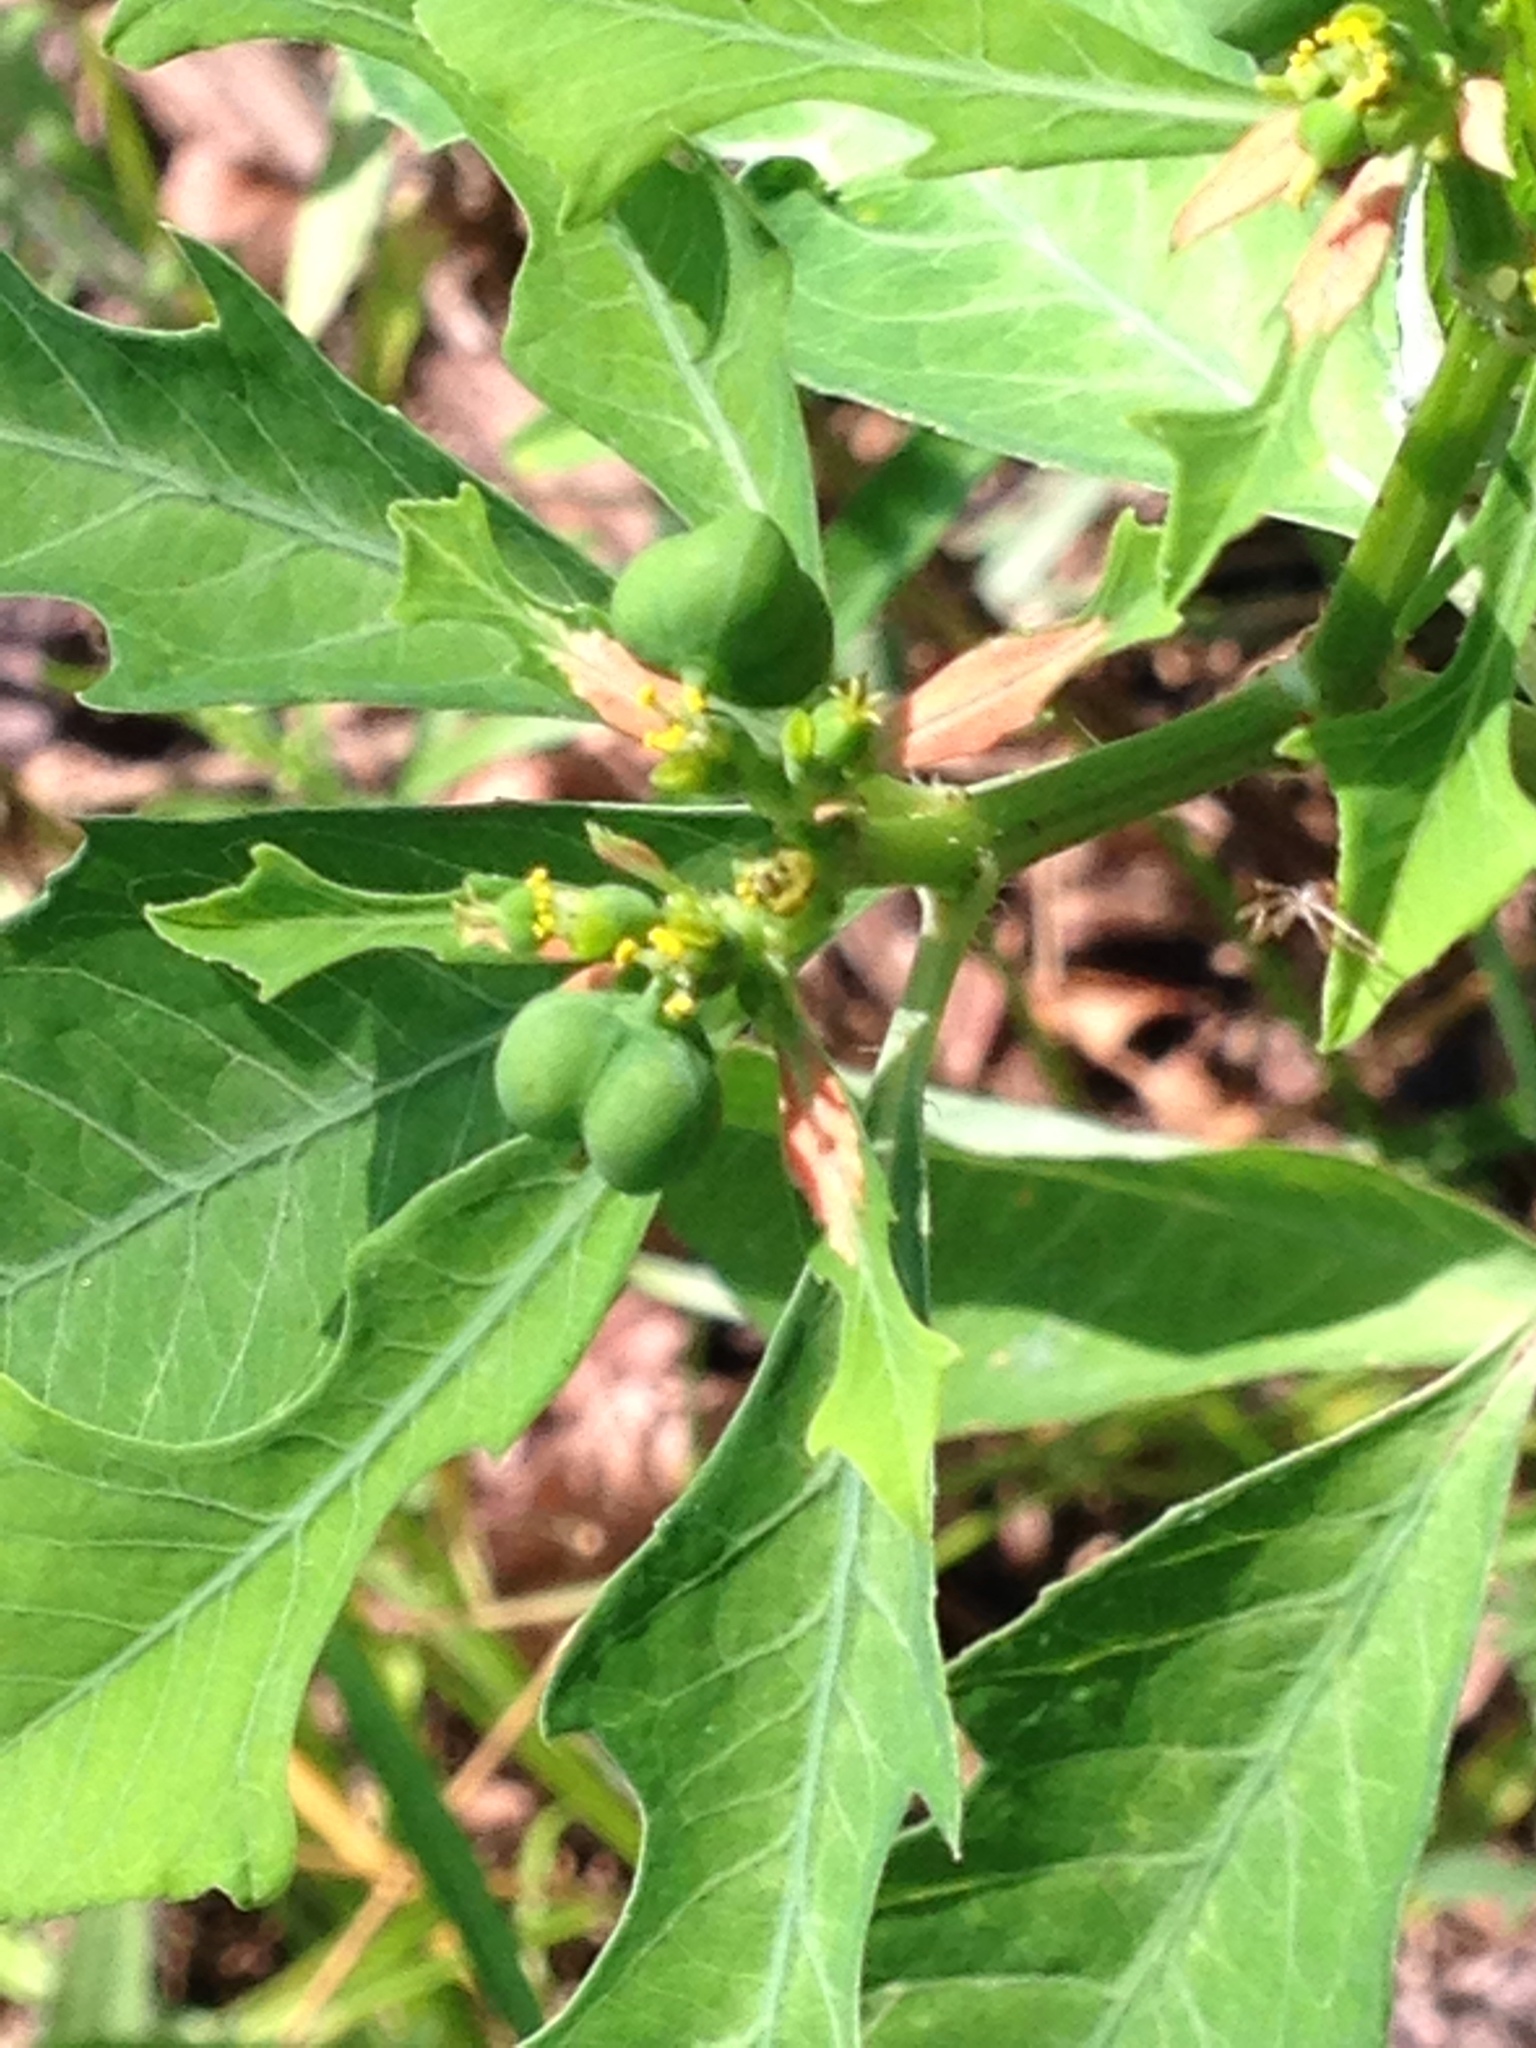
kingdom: Plantae
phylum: Tracheophyta
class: Magnoliopsida
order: Malpighiales
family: Euphorbiaceae
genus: Euphorbia
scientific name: Euphorbia heterophylla
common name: Mexican fireplant
